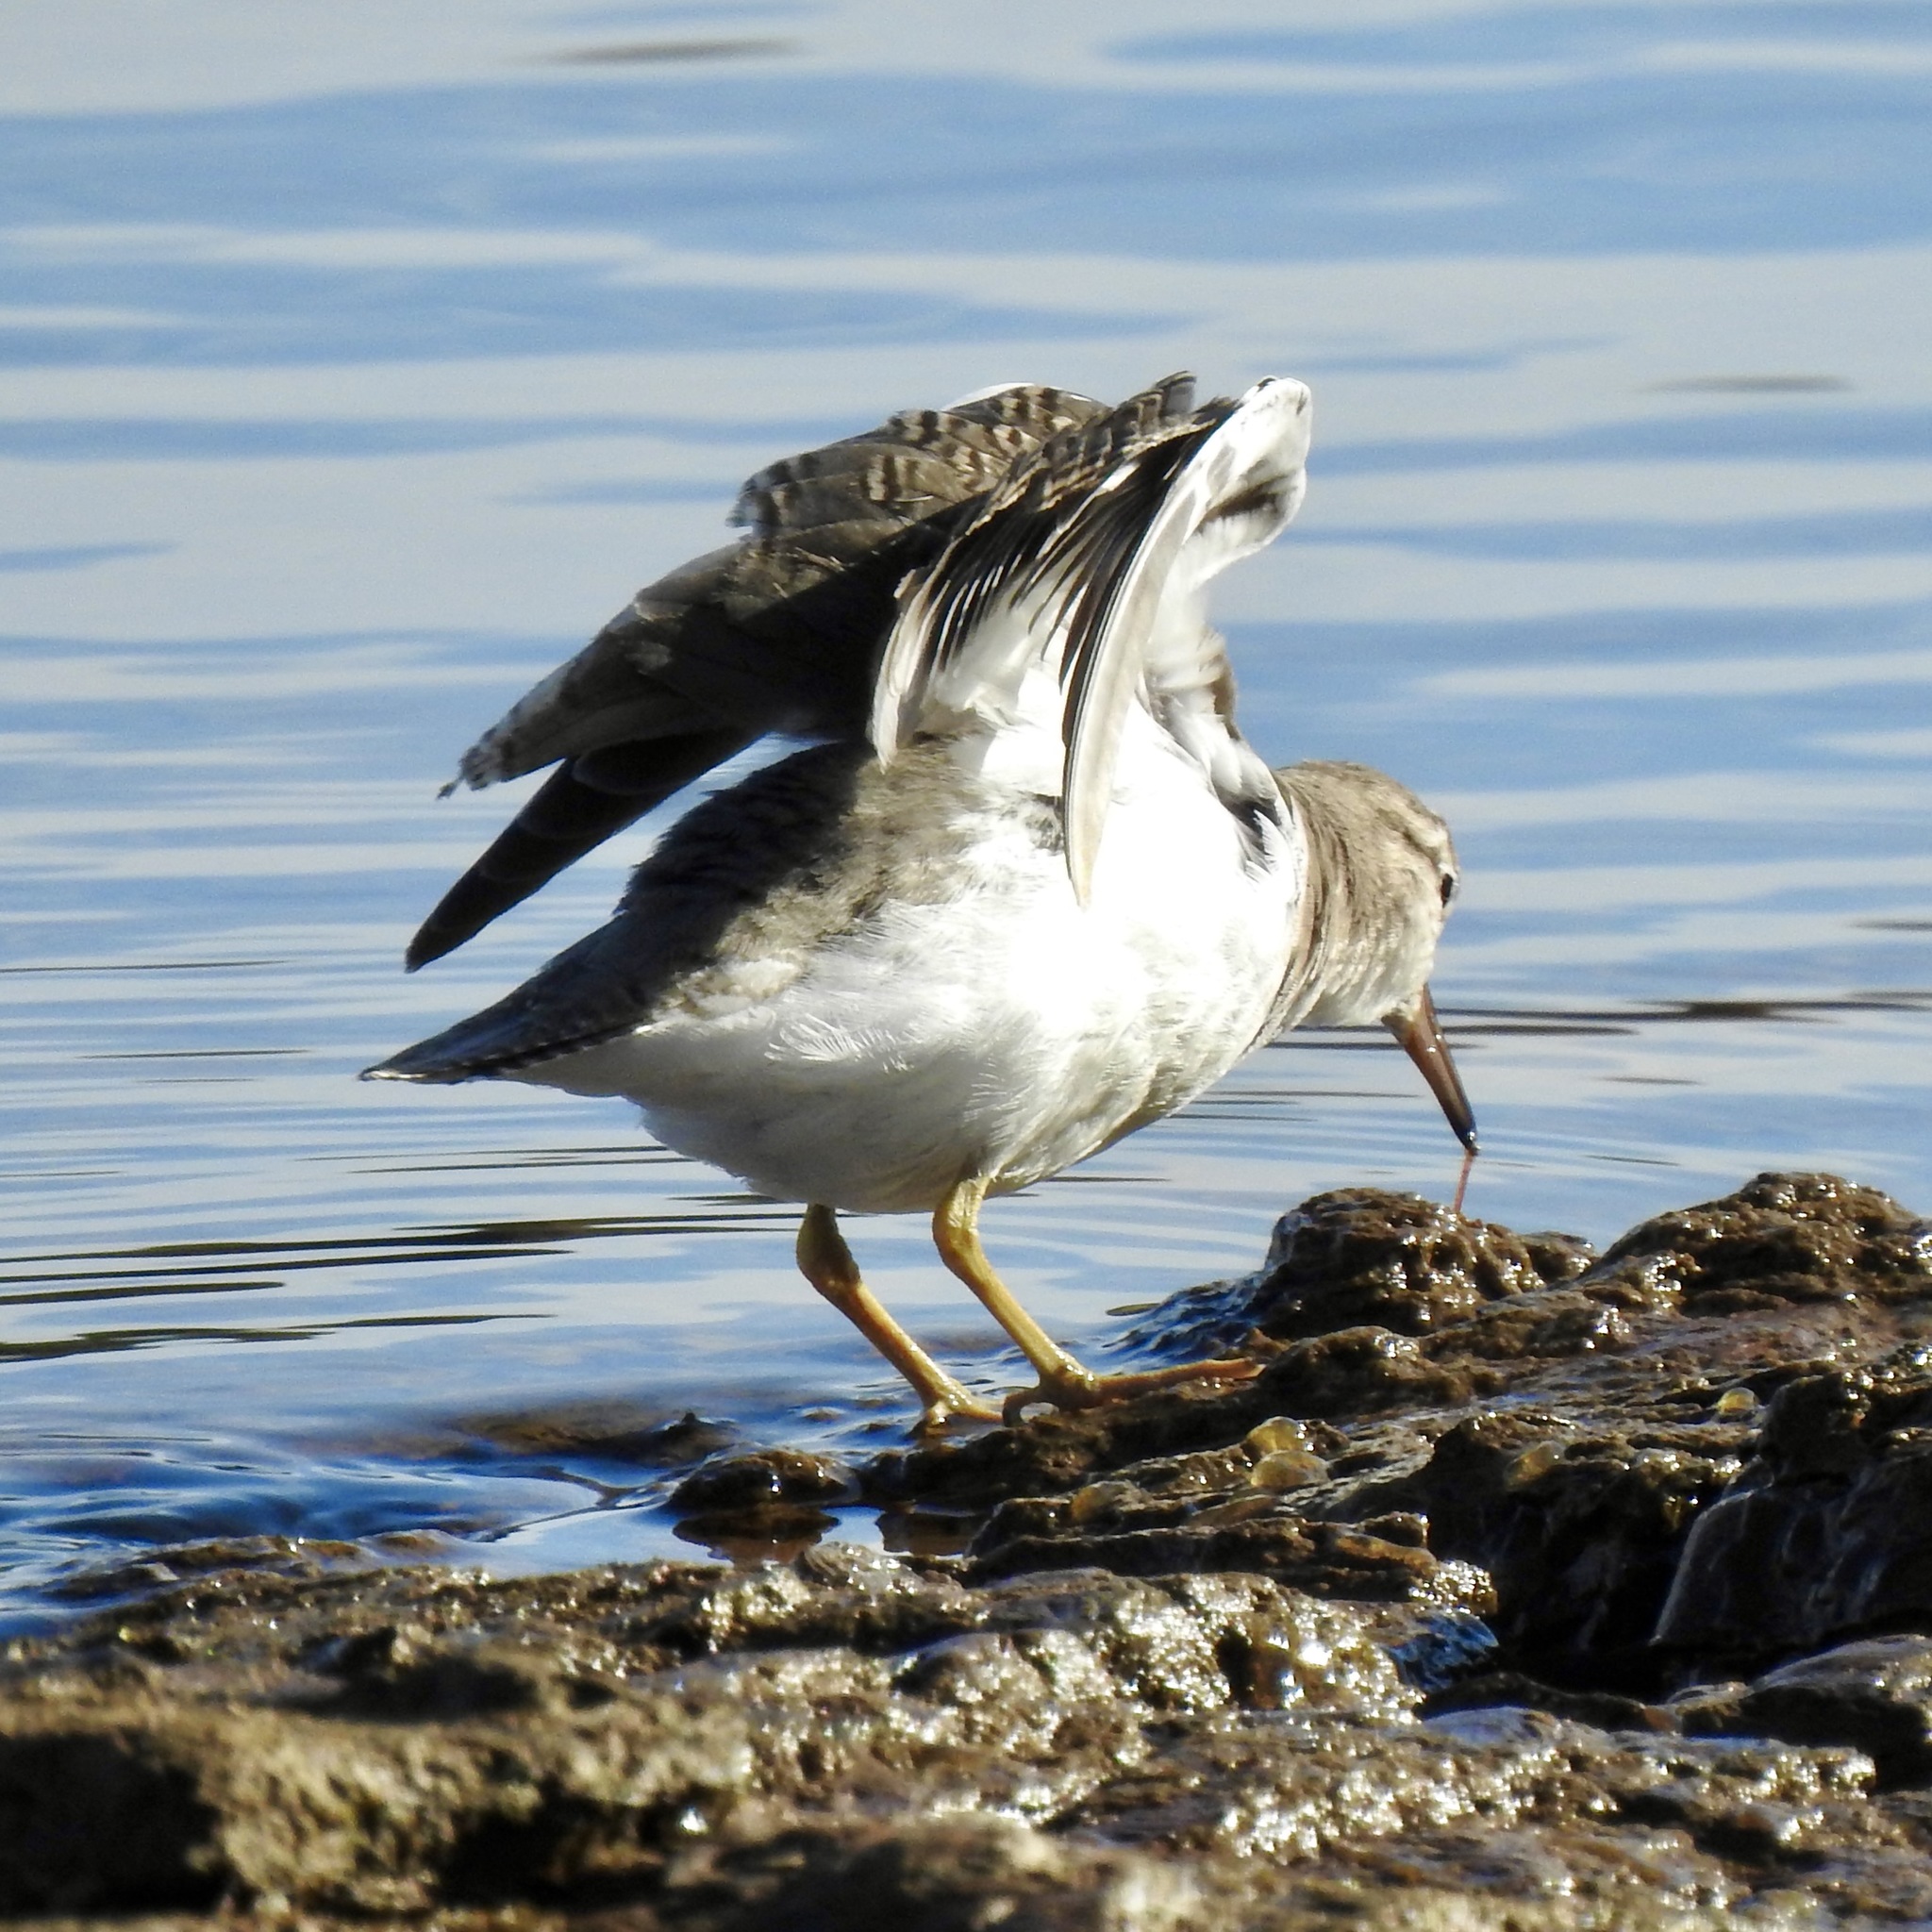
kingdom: Animalia
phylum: Chordata
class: Aves
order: Charadriiformes
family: Scolopacidae
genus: Actitis
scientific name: Actitis macularius
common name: Spotted sandpiper
